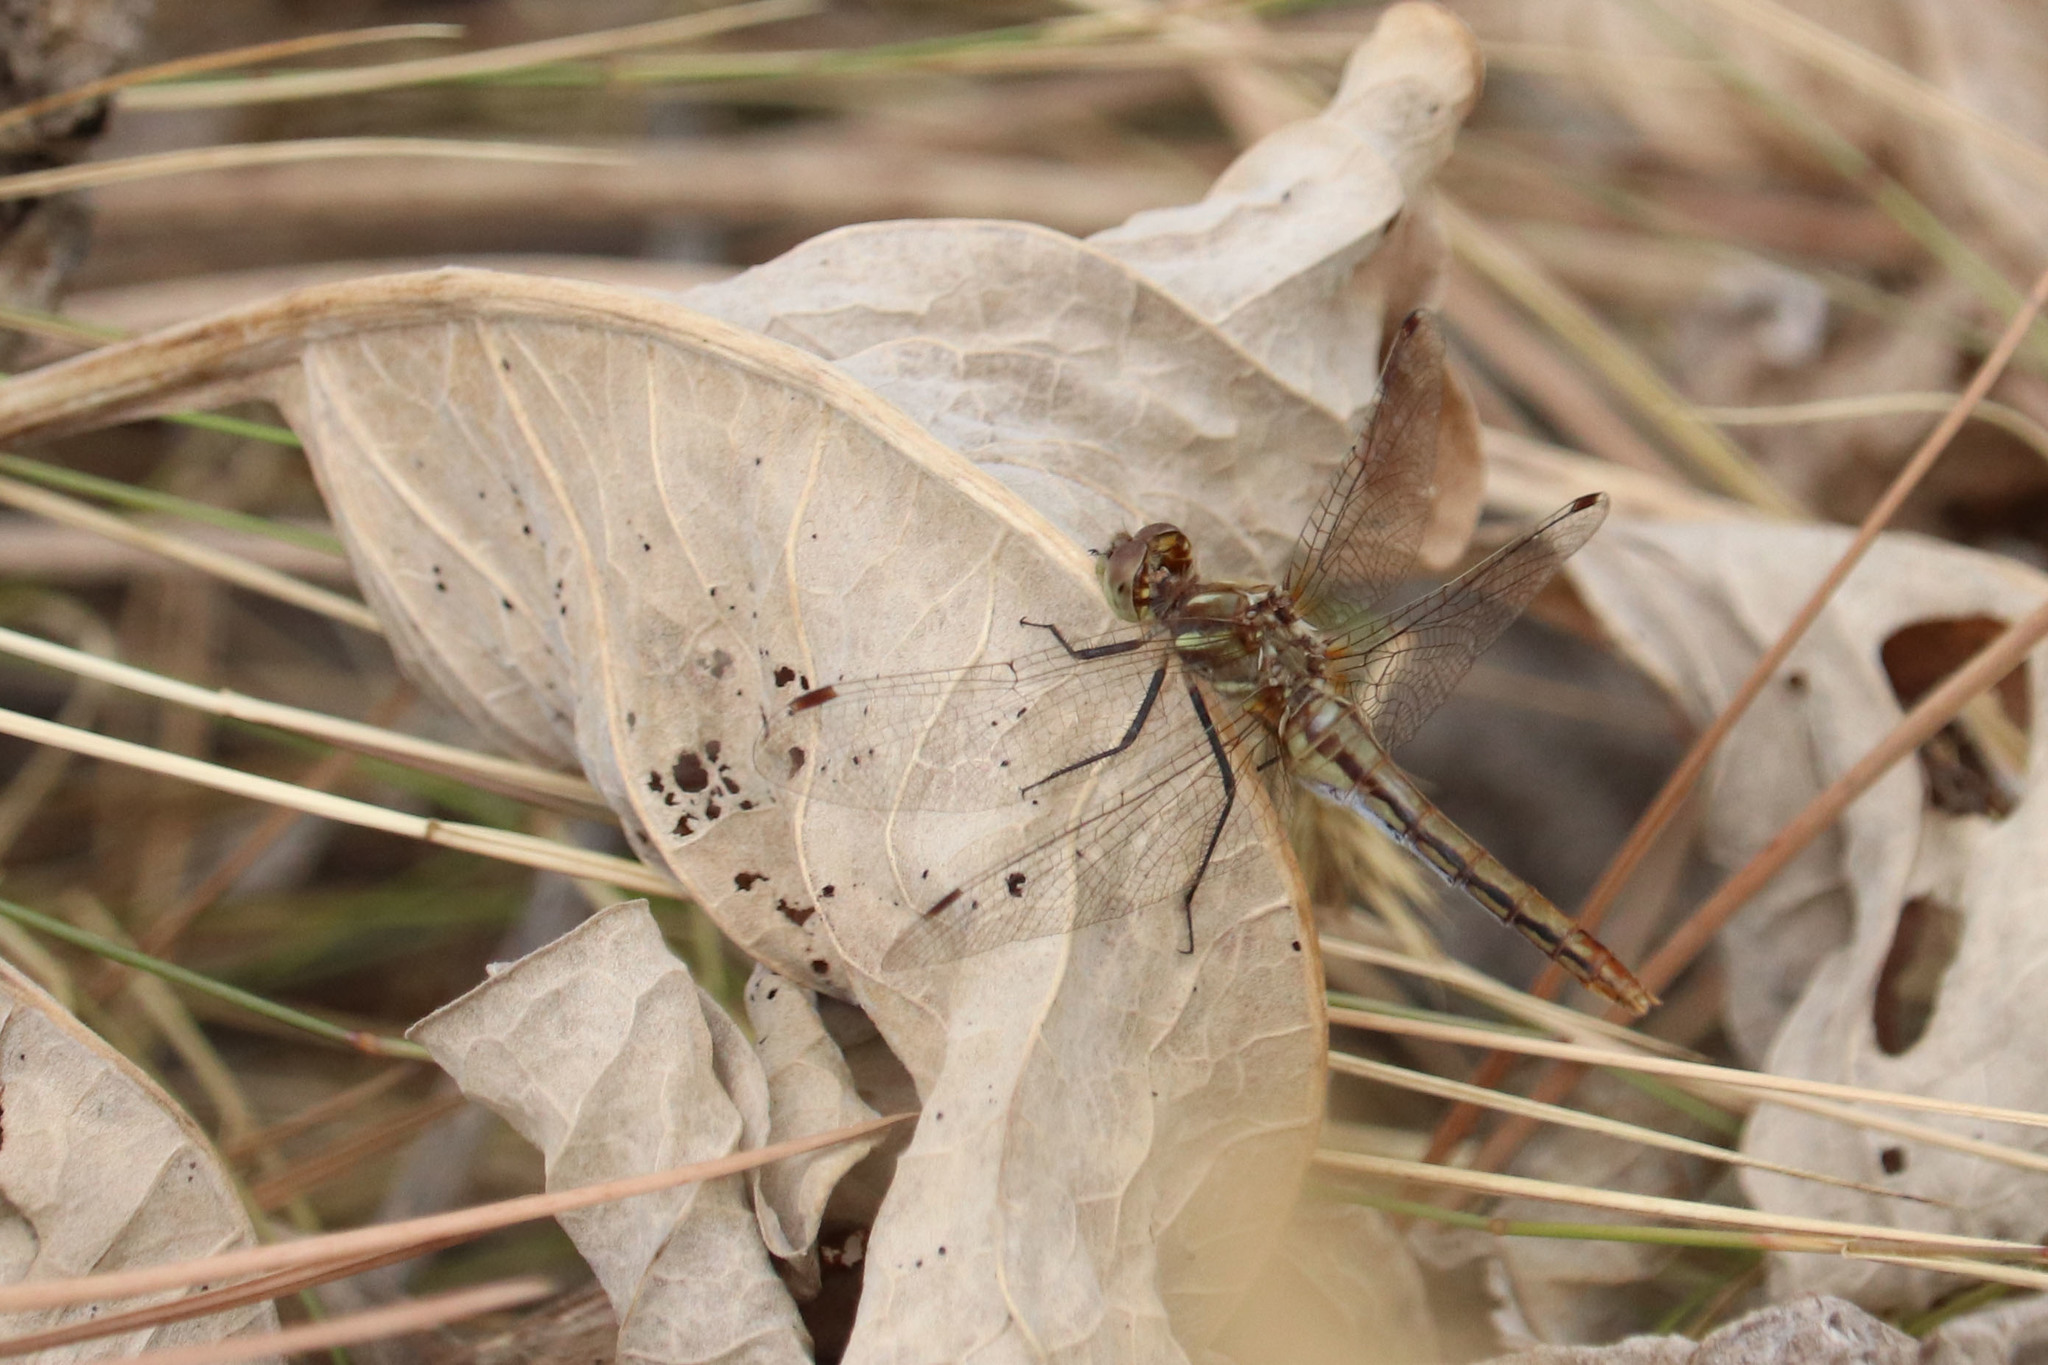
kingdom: Animalia
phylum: Arthropoda
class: Insecta
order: Odonata
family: Libellulidae
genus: Sympetrum
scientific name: Sympetrum pallipes
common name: Striped meadowhawk
